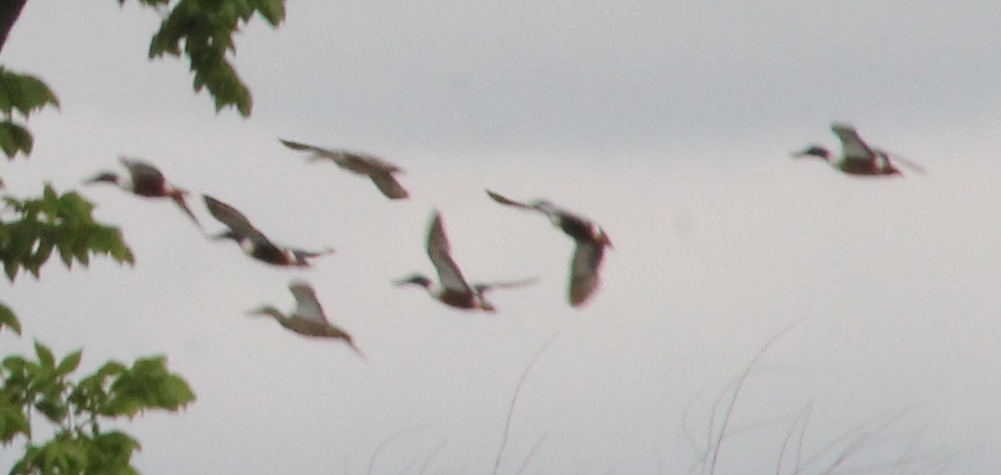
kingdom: Animalia
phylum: Chordata
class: Aves
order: Anseriformes
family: Anatidae
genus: Spatula
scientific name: Spatula clypeata
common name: Northern shoveler
